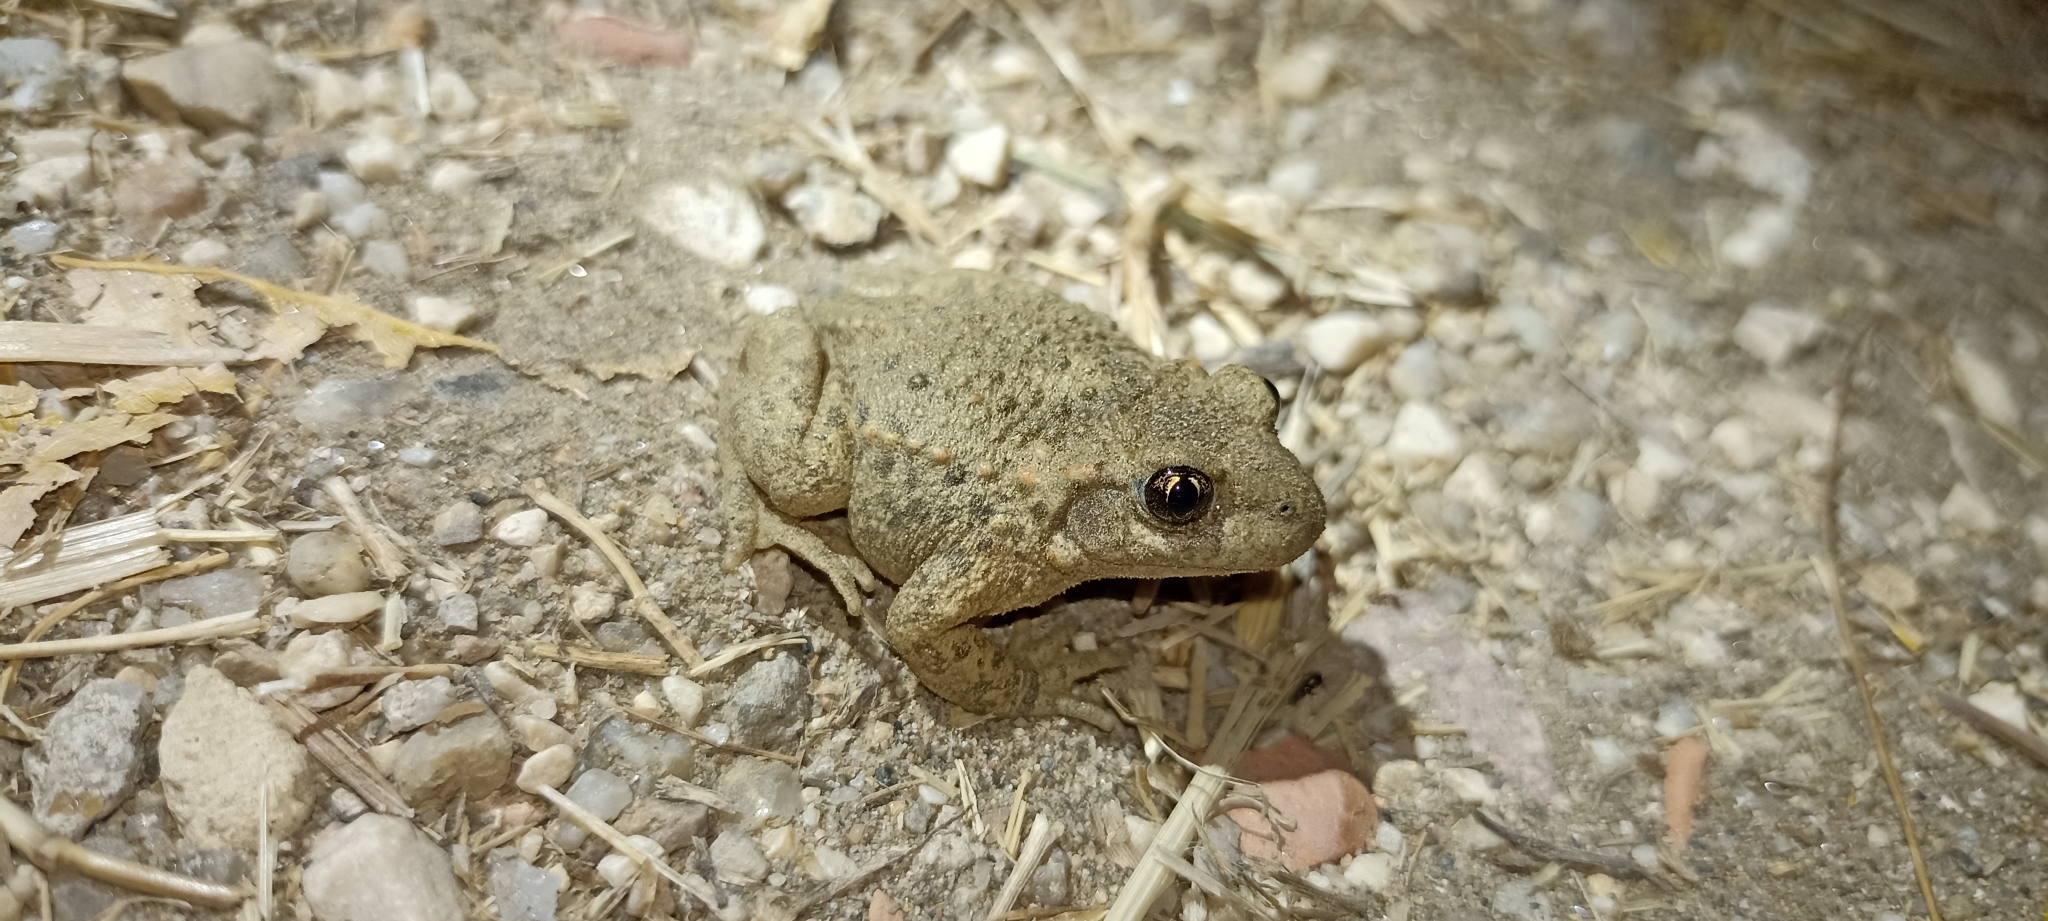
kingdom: Animalia
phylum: Chordata
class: Amphibia
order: Anura
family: Alytidae
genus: Alytes
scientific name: Alytes obstetricans
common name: Midwife toad
